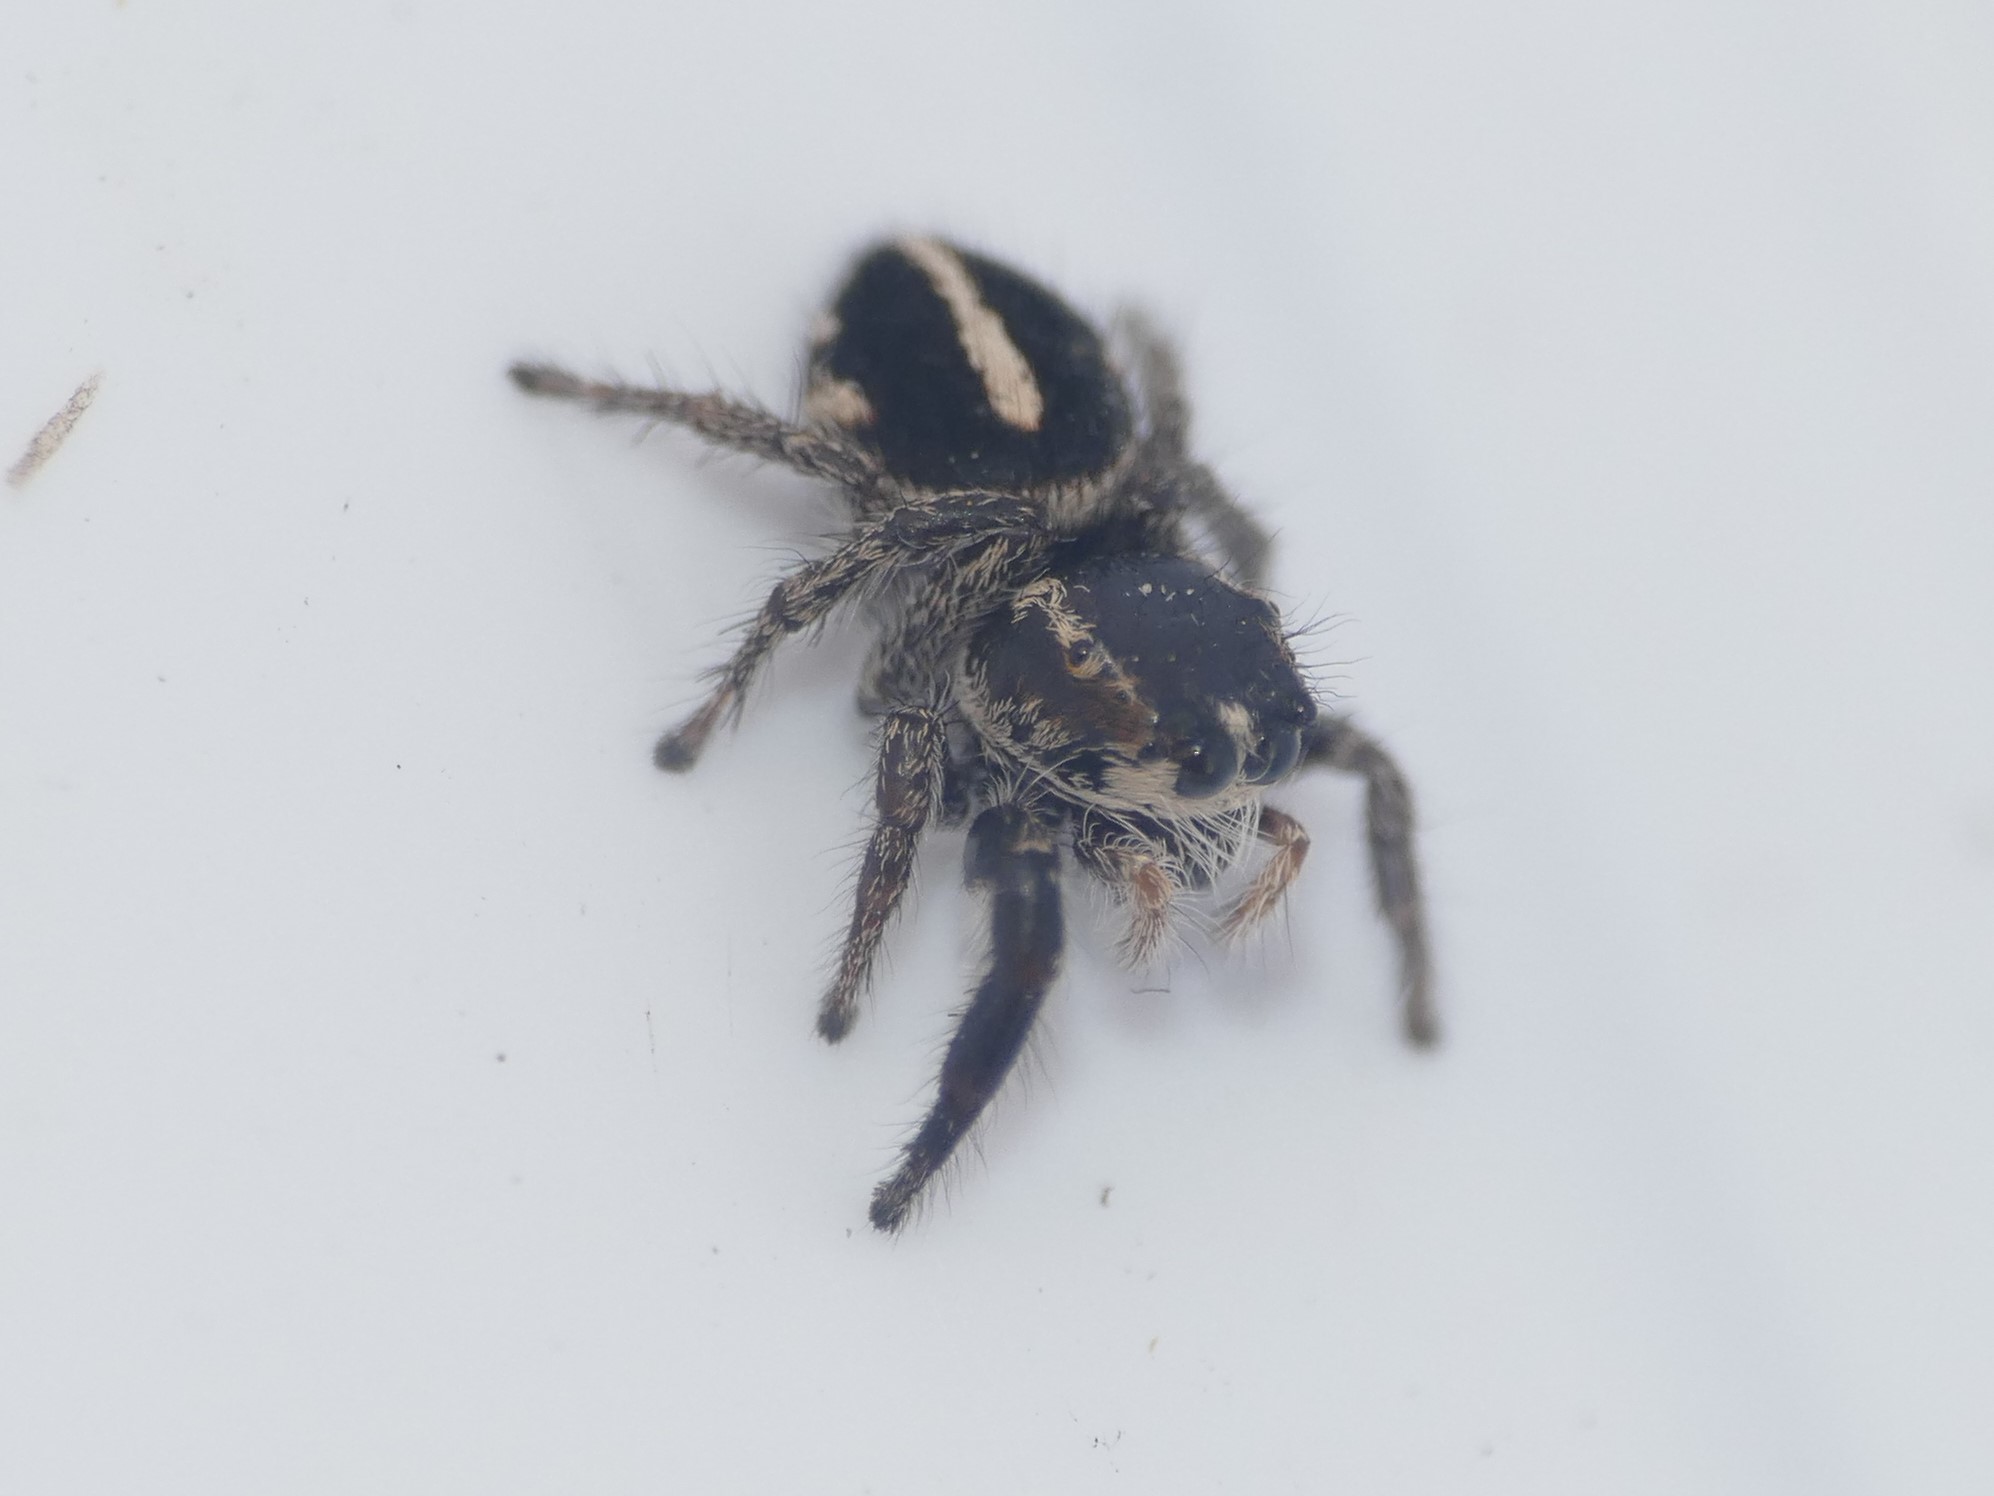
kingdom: Animalia
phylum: Arthropoda
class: Arachnida
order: Araneae
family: Salticidae
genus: Pellenes
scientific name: Pellenes brevis
